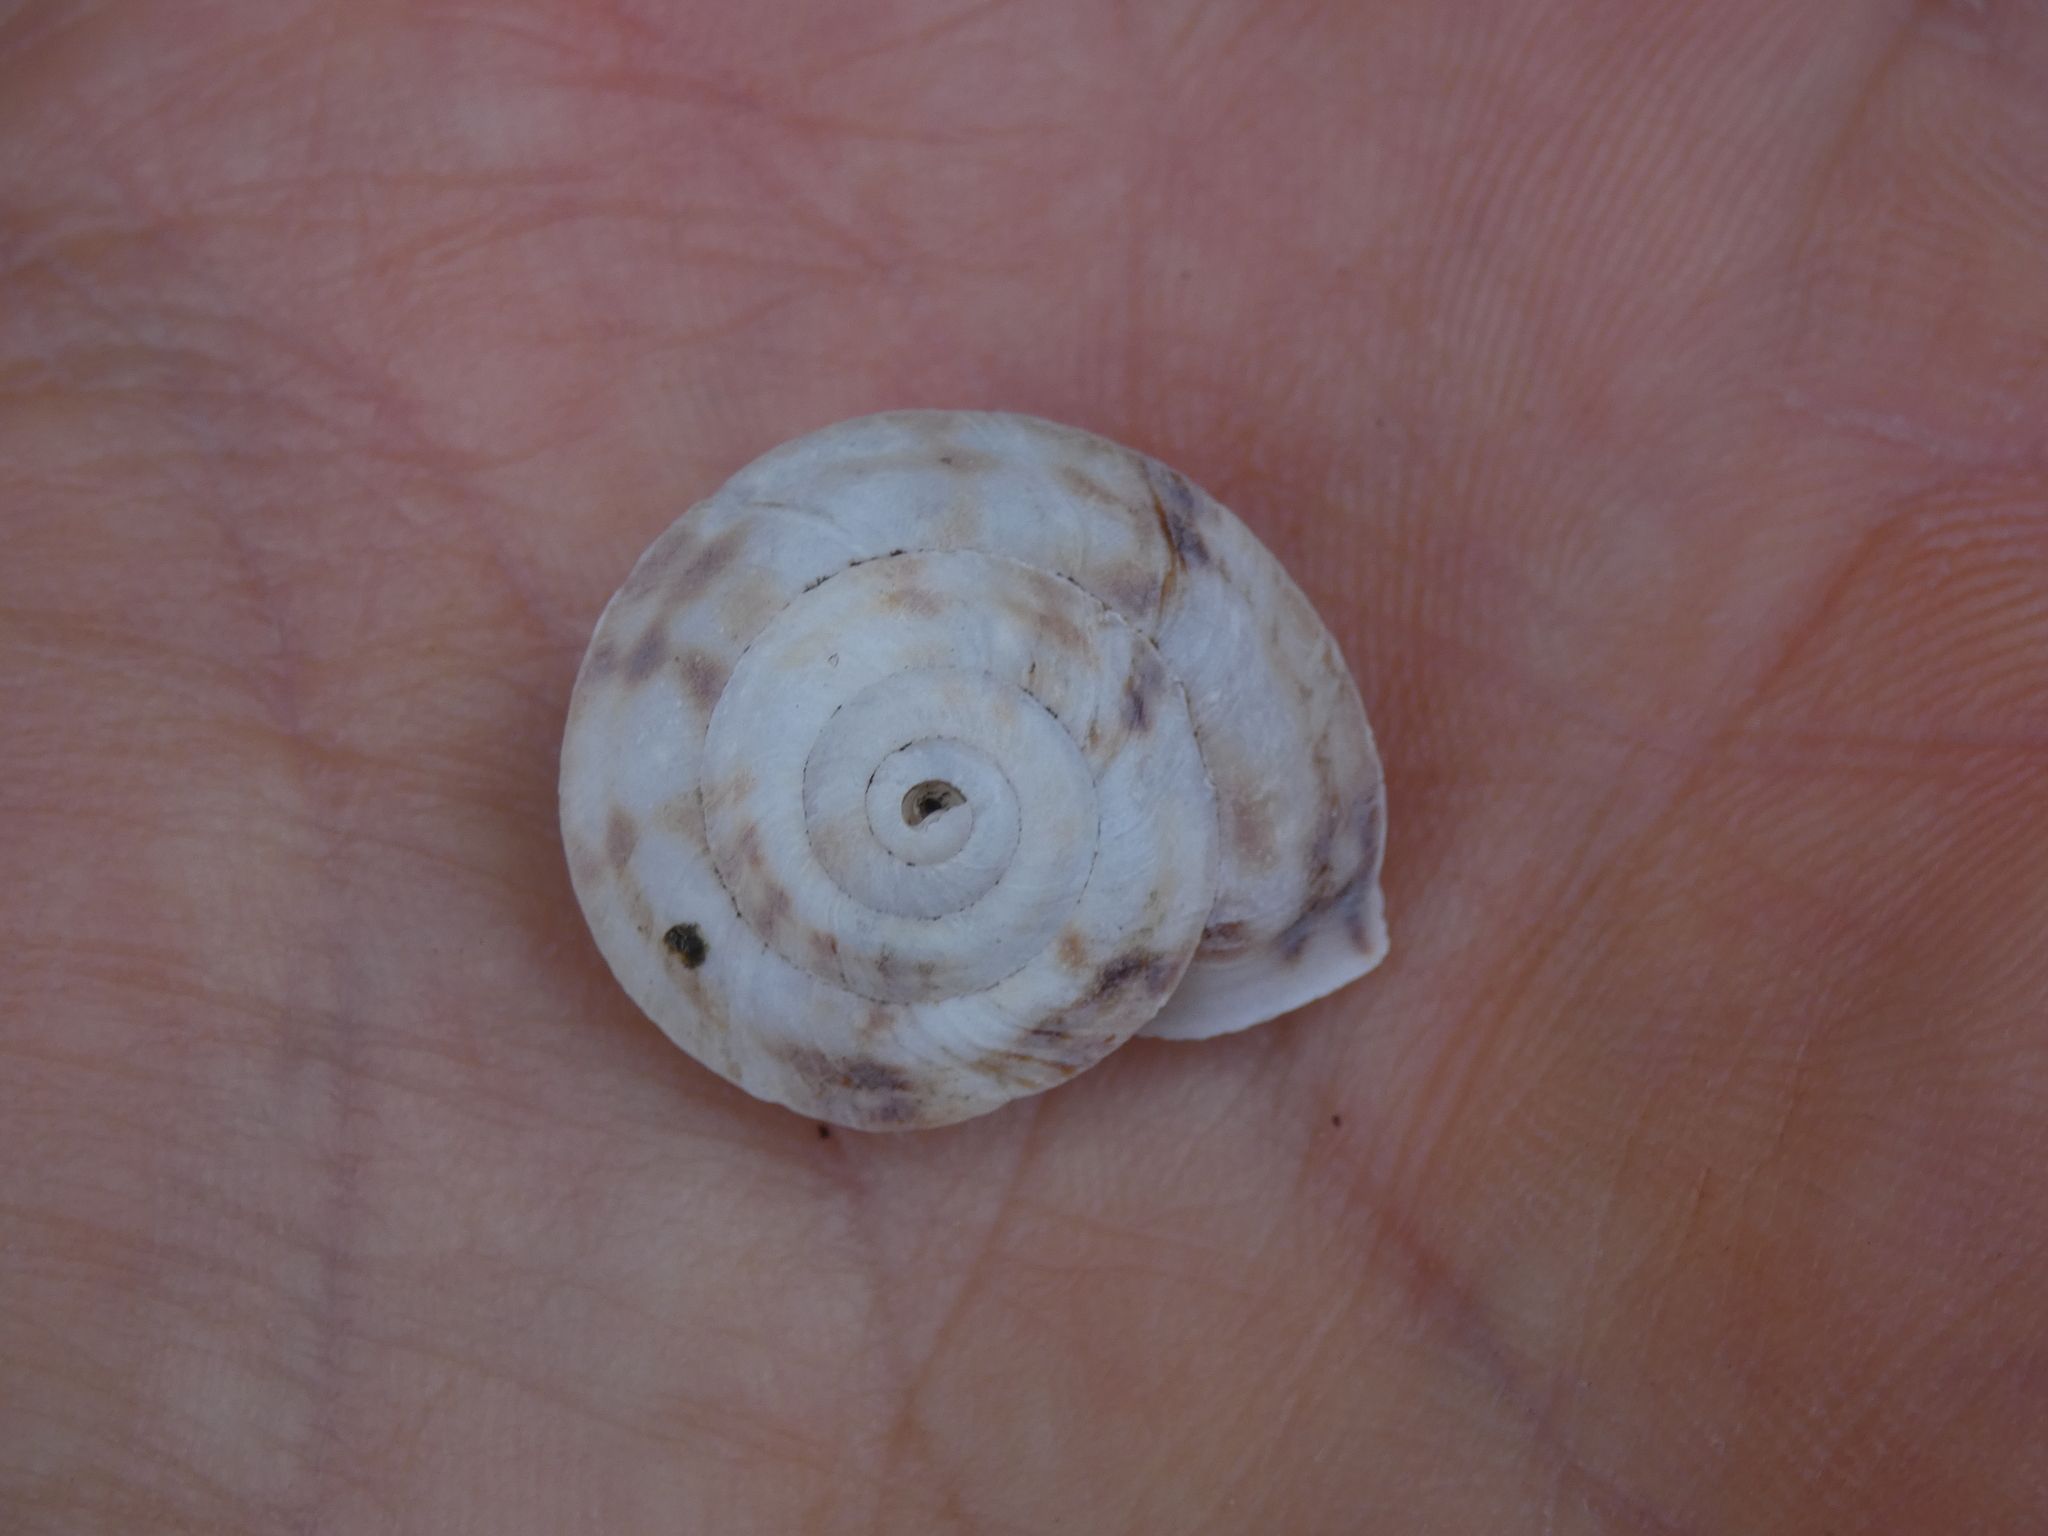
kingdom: Animalia
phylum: Mollusca
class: Gastropoda
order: Stylommatophora
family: Helicidae
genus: Helicigona
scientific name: Helicigona lapicida
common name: Lapidary snail
